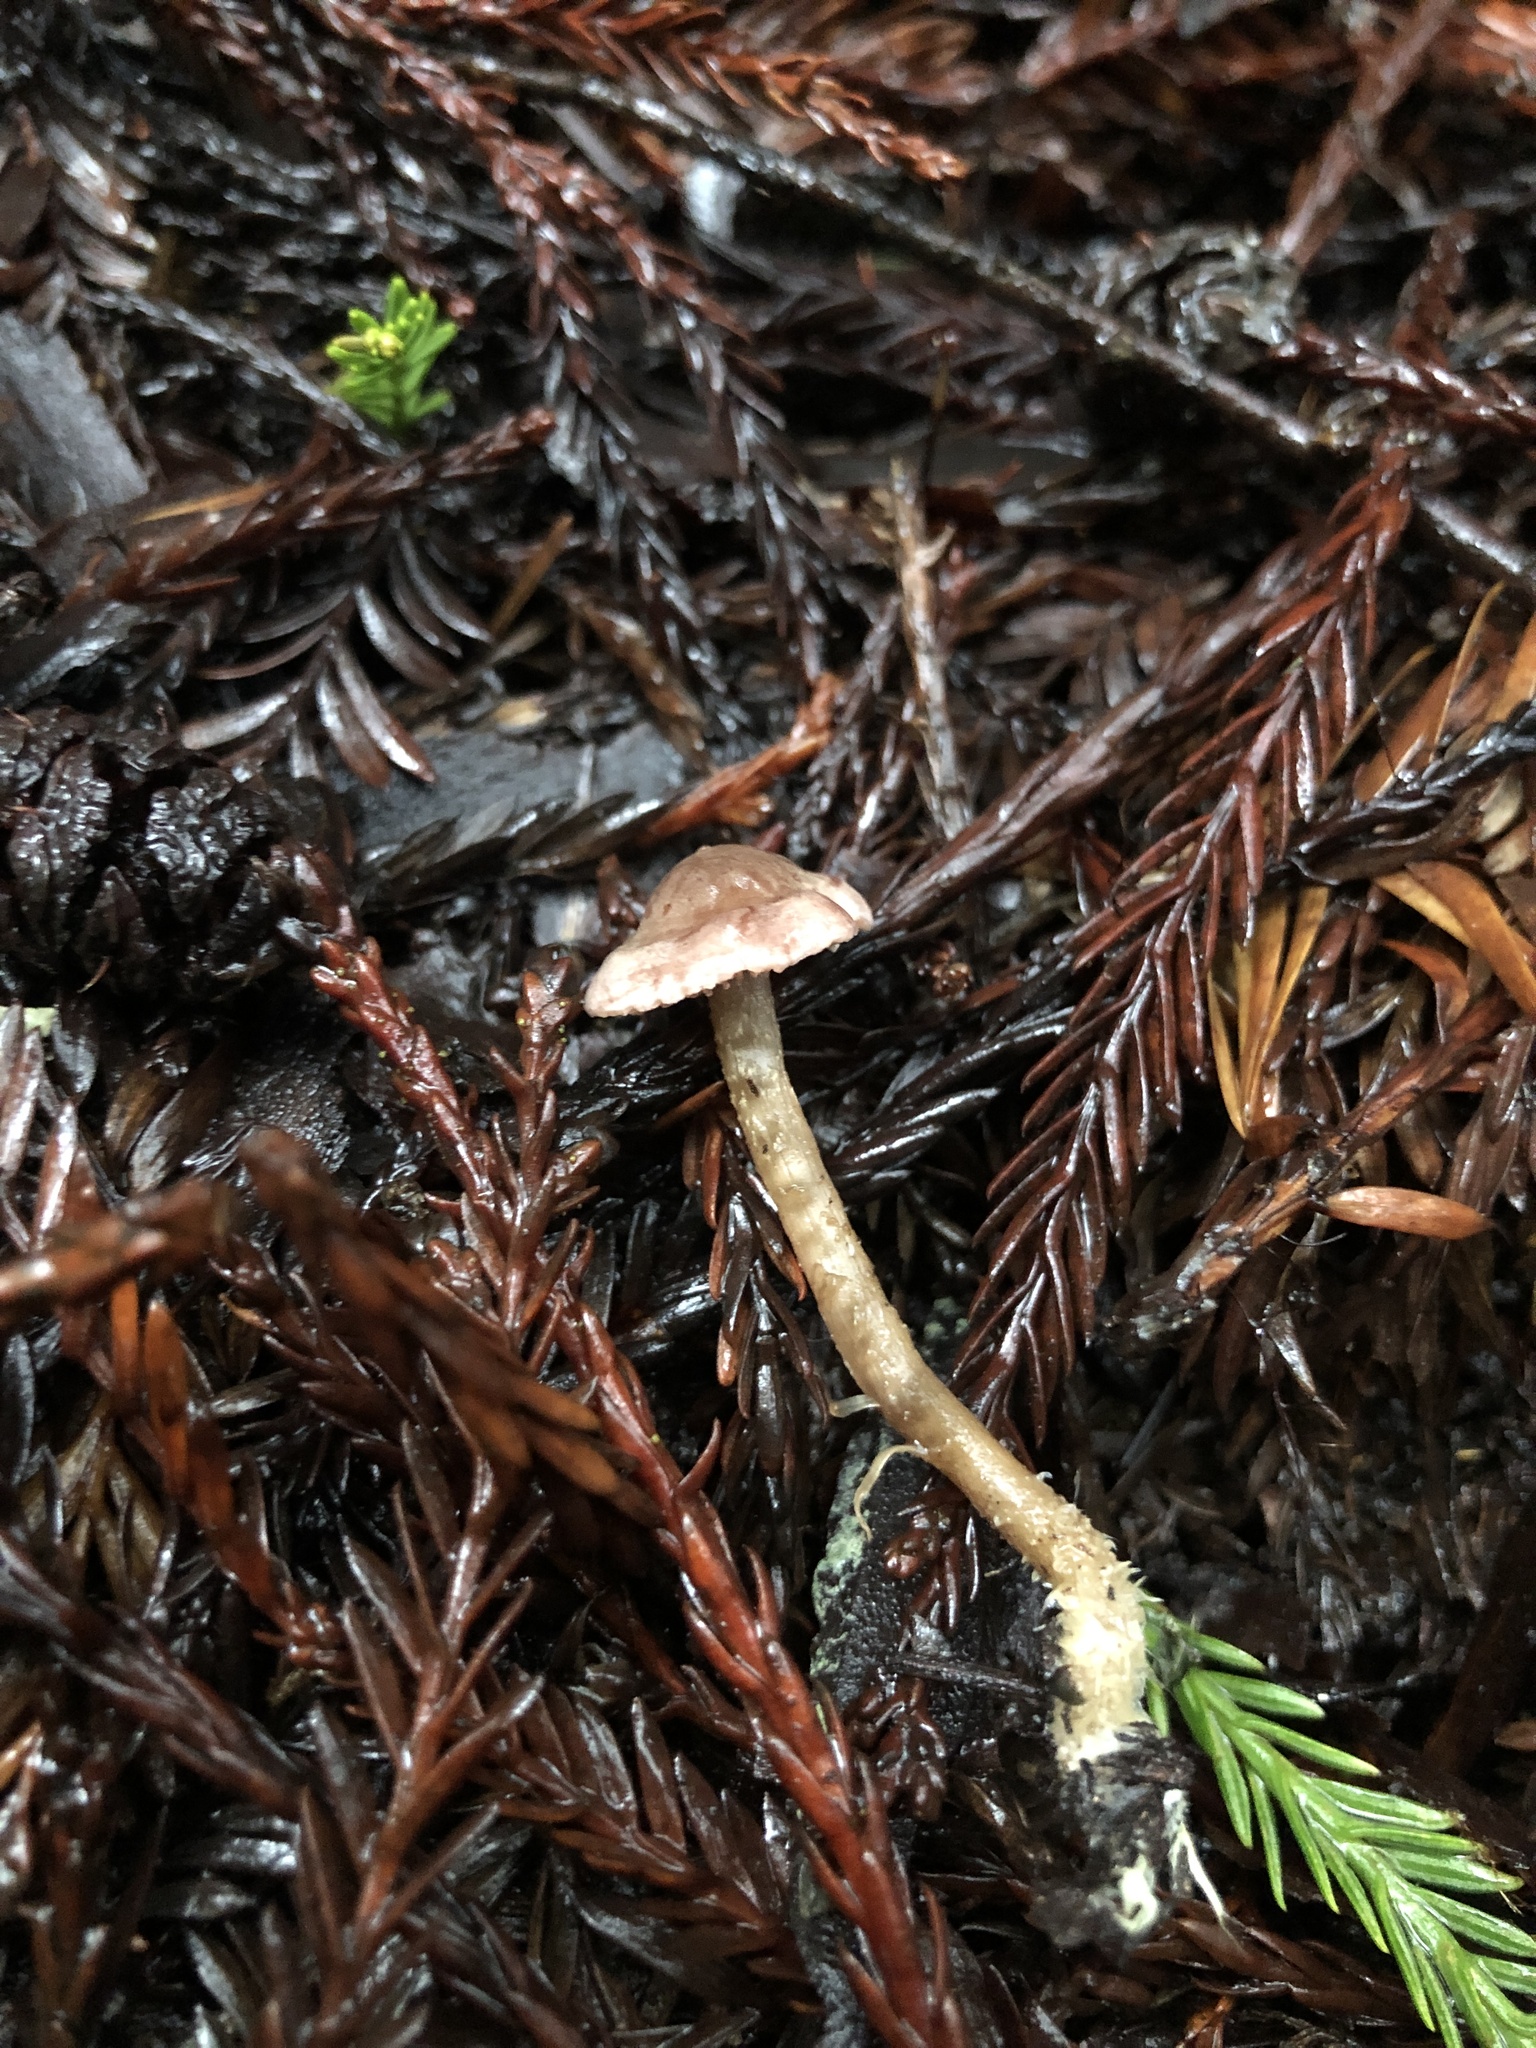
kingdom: Fungi
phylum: Basidiomycota
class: Agaricomycetes
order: Agaricales
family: Tricholomataceae
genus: Pseudobaeospora
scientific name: Pseudobaeospora stevensii
